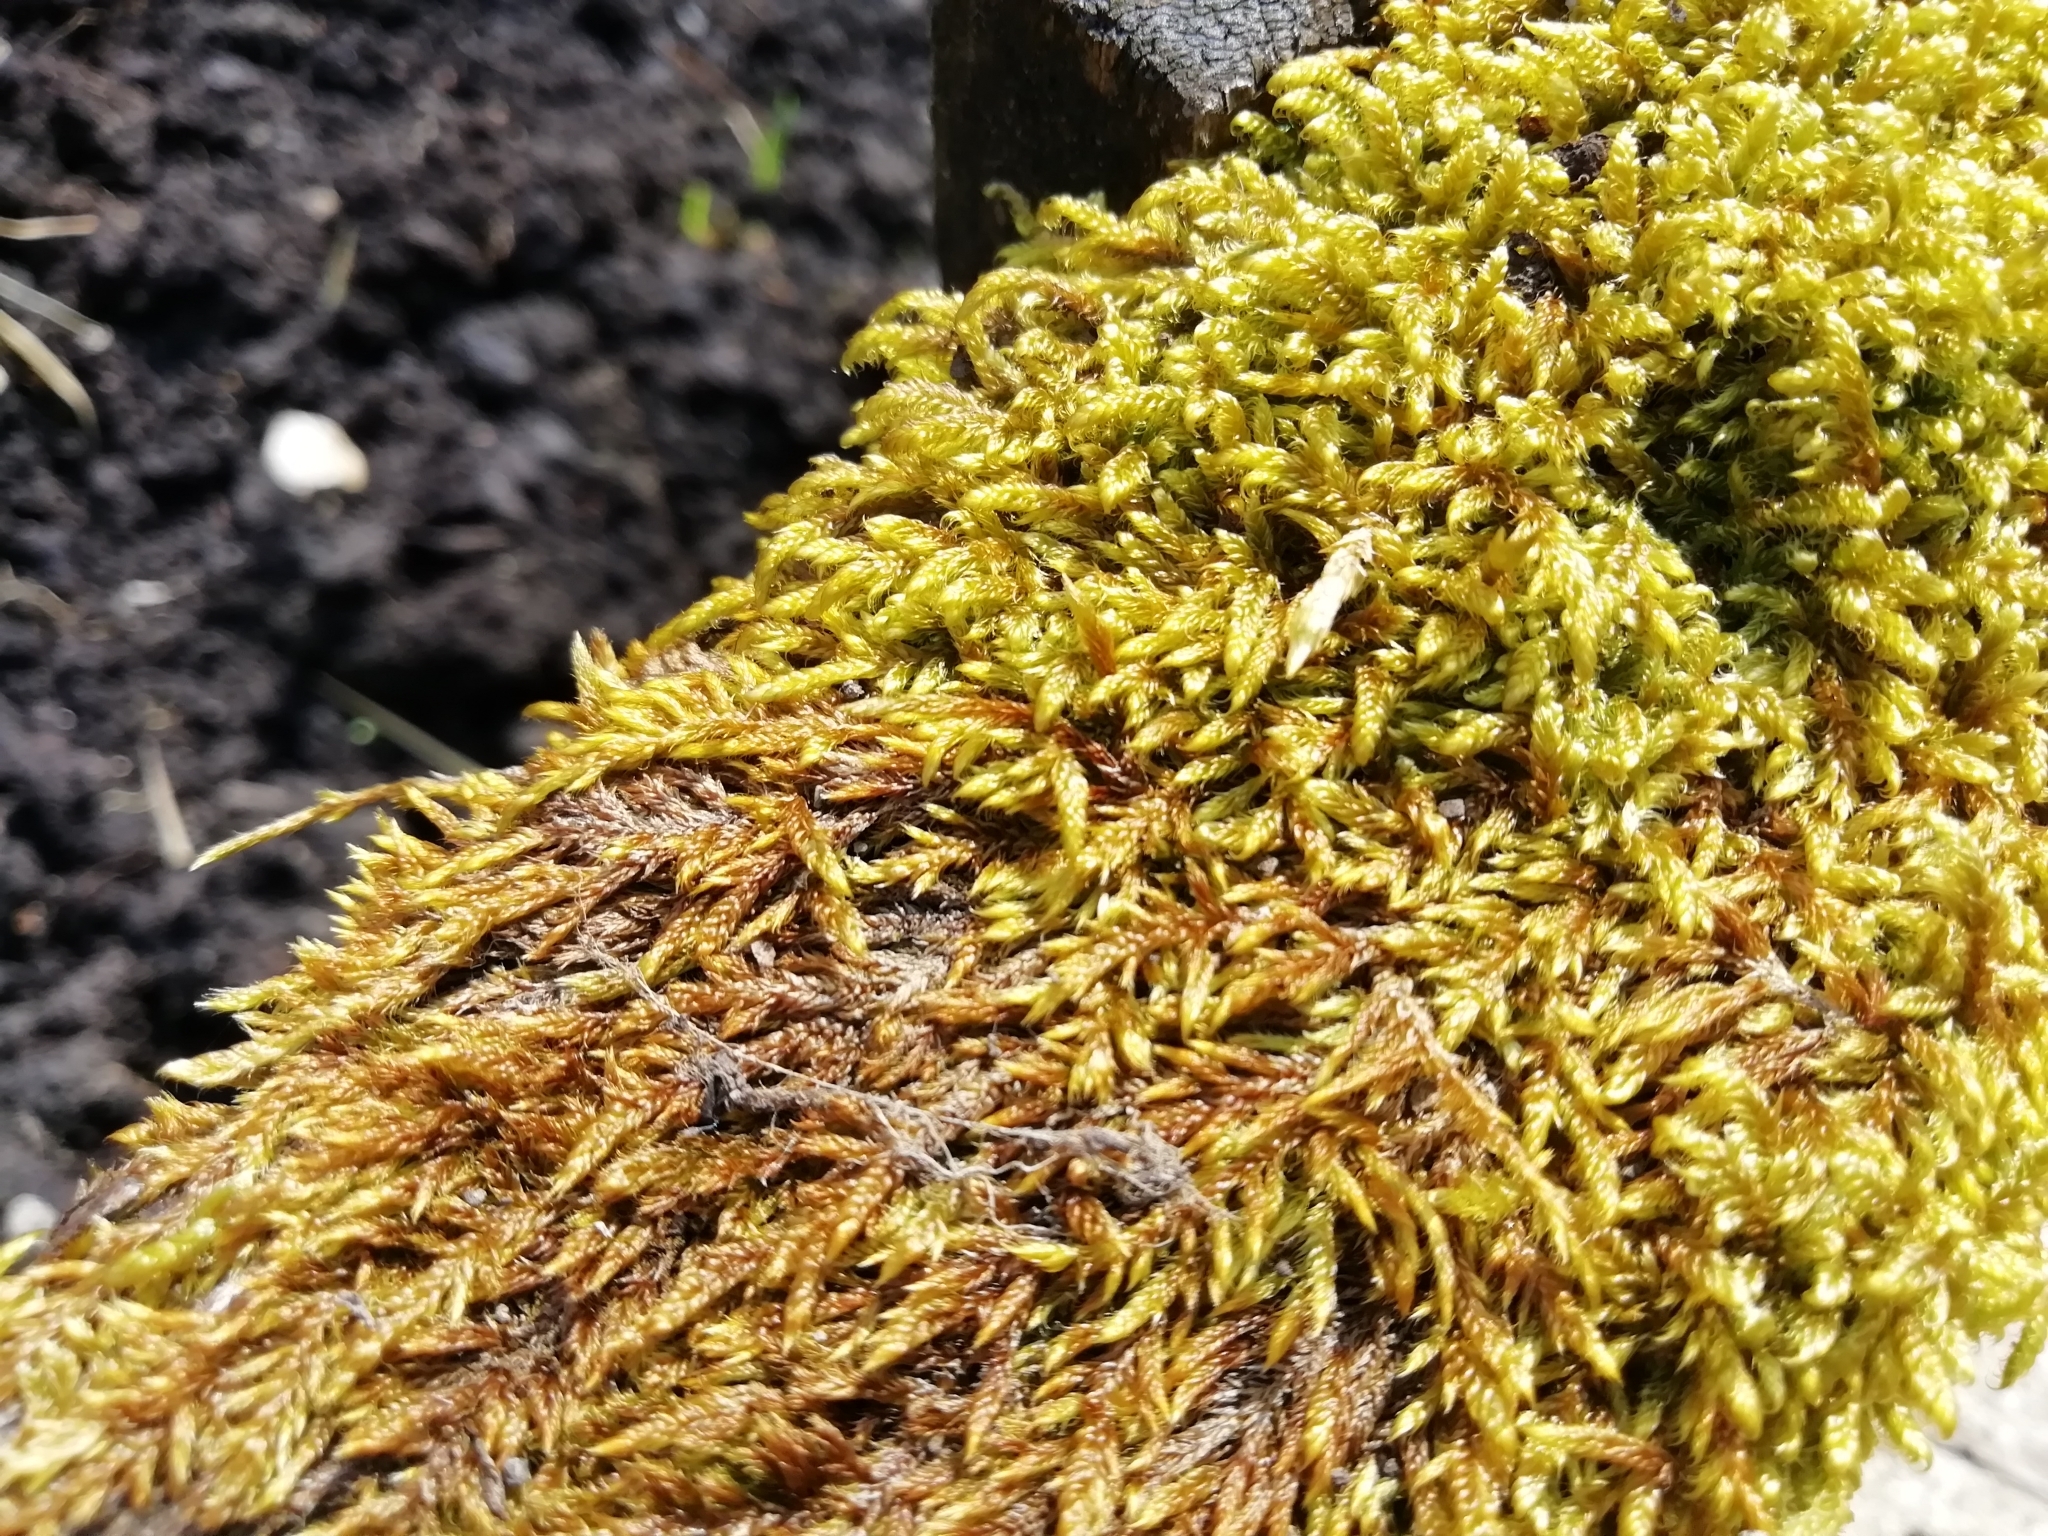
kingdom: Plantae
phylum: Bryophyta
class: Bryopsida
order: Hypnales
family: Hypnaceae
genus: Hypnum
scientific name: Hypnum cupressiforme
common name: Cypress-leaved plait-moss
